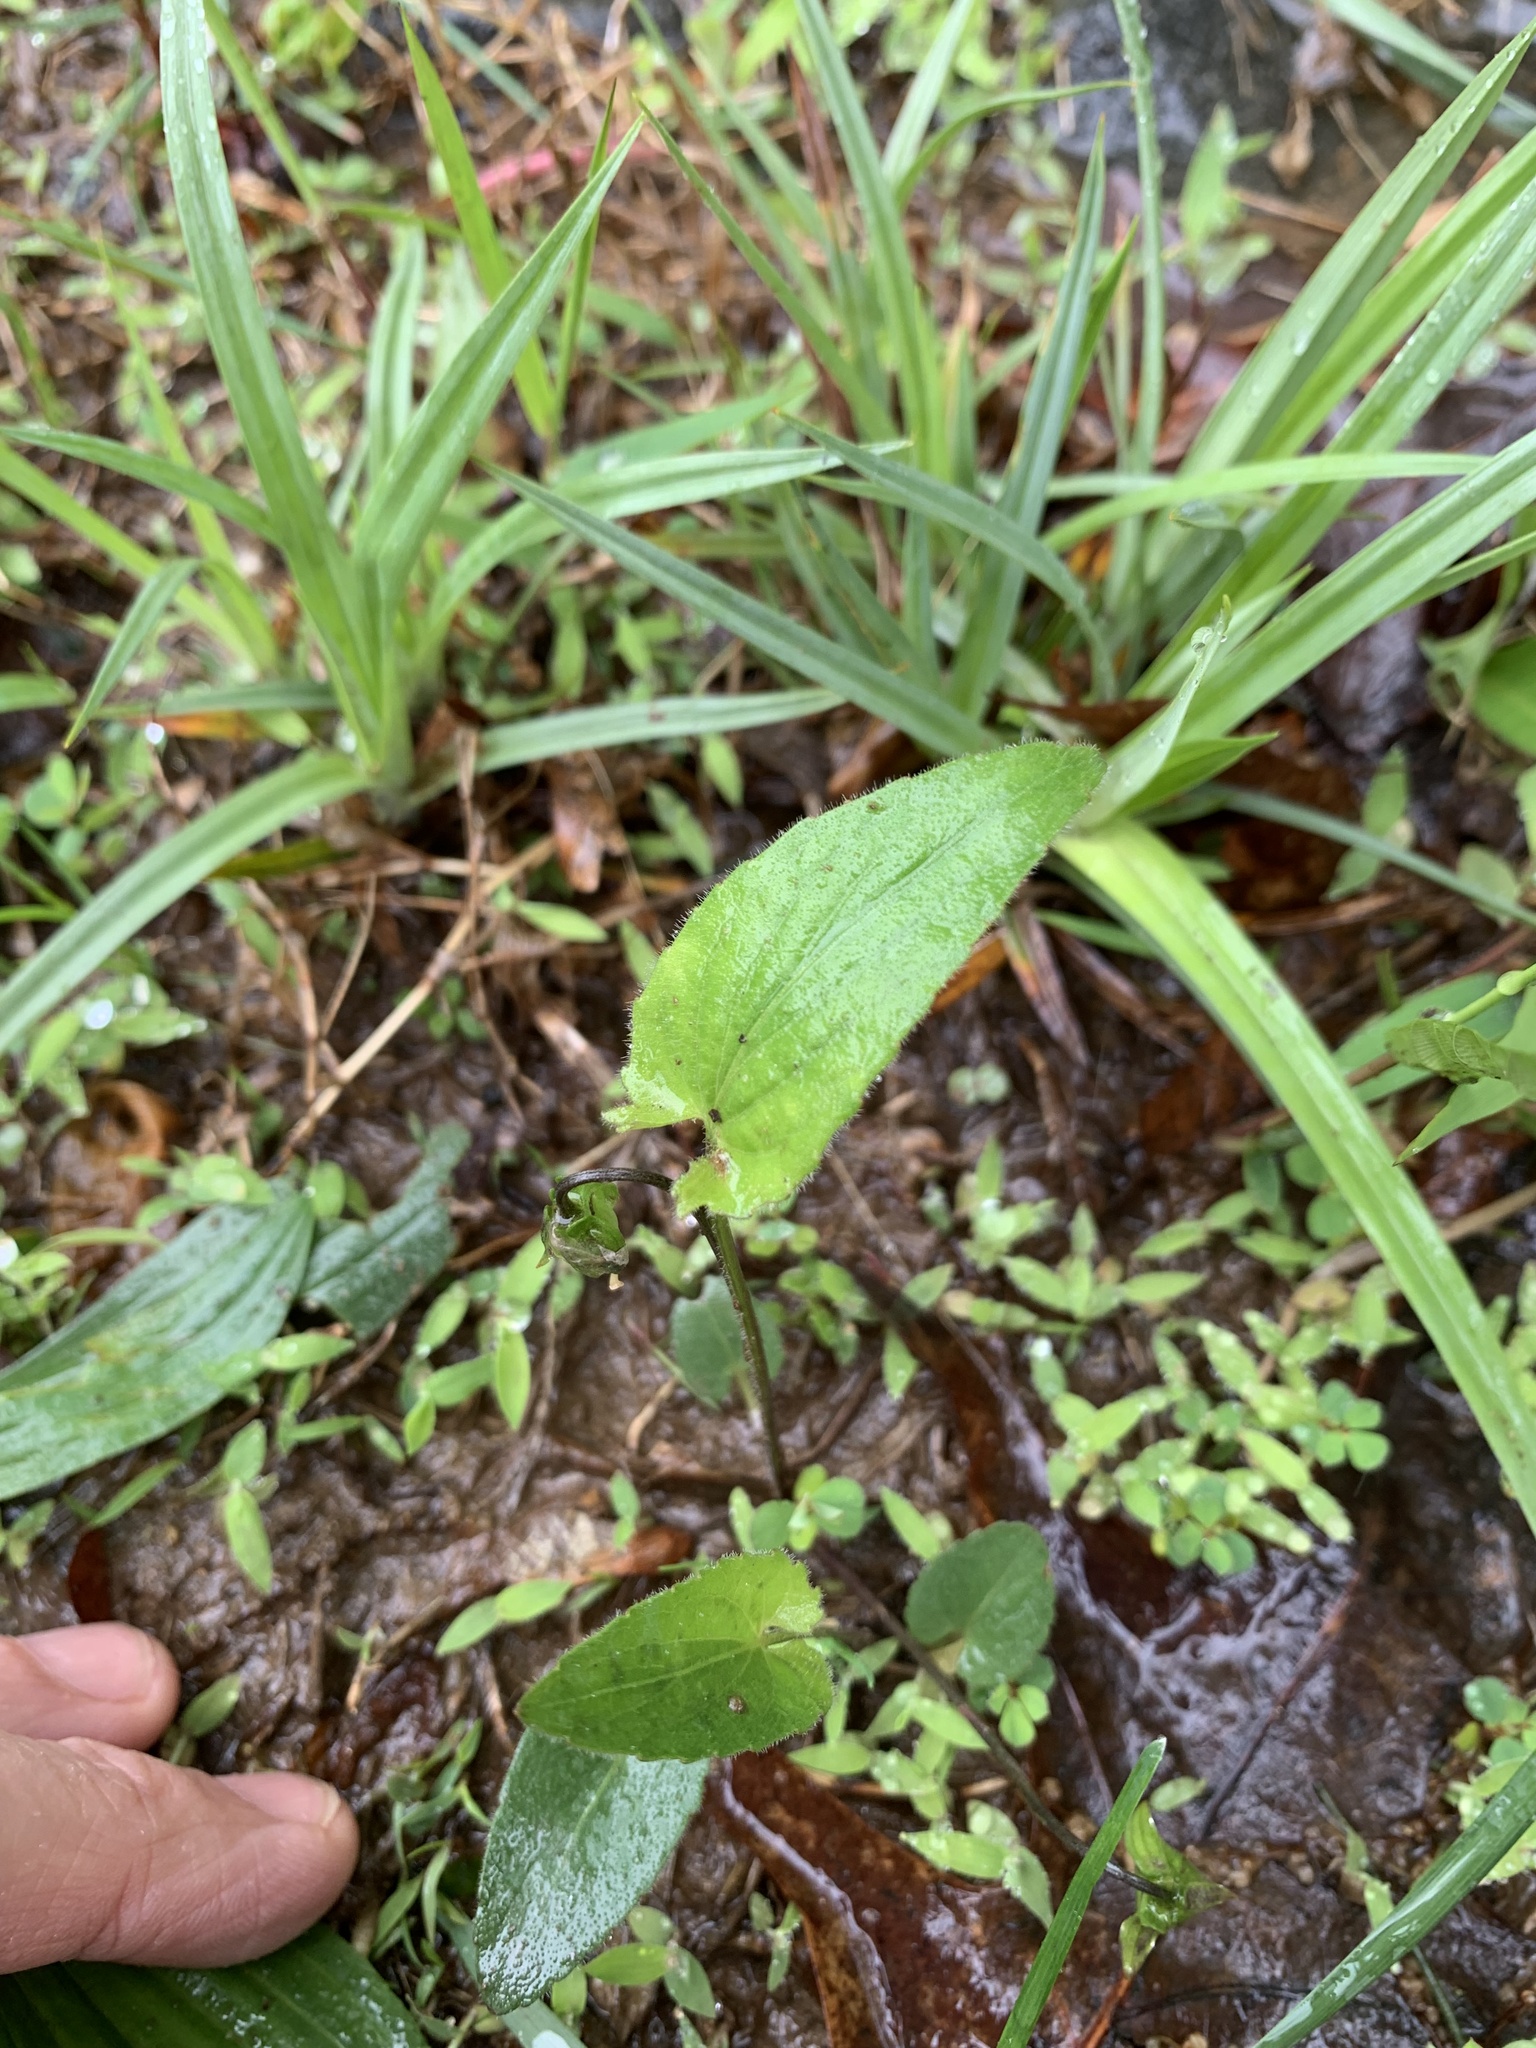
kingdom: Plantae
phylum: Tracheophyta
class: Magnoliopsida
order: Malpighiales
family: Violaceae
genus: Viola
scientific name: Viola sagittata
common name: Arrowhead violet
